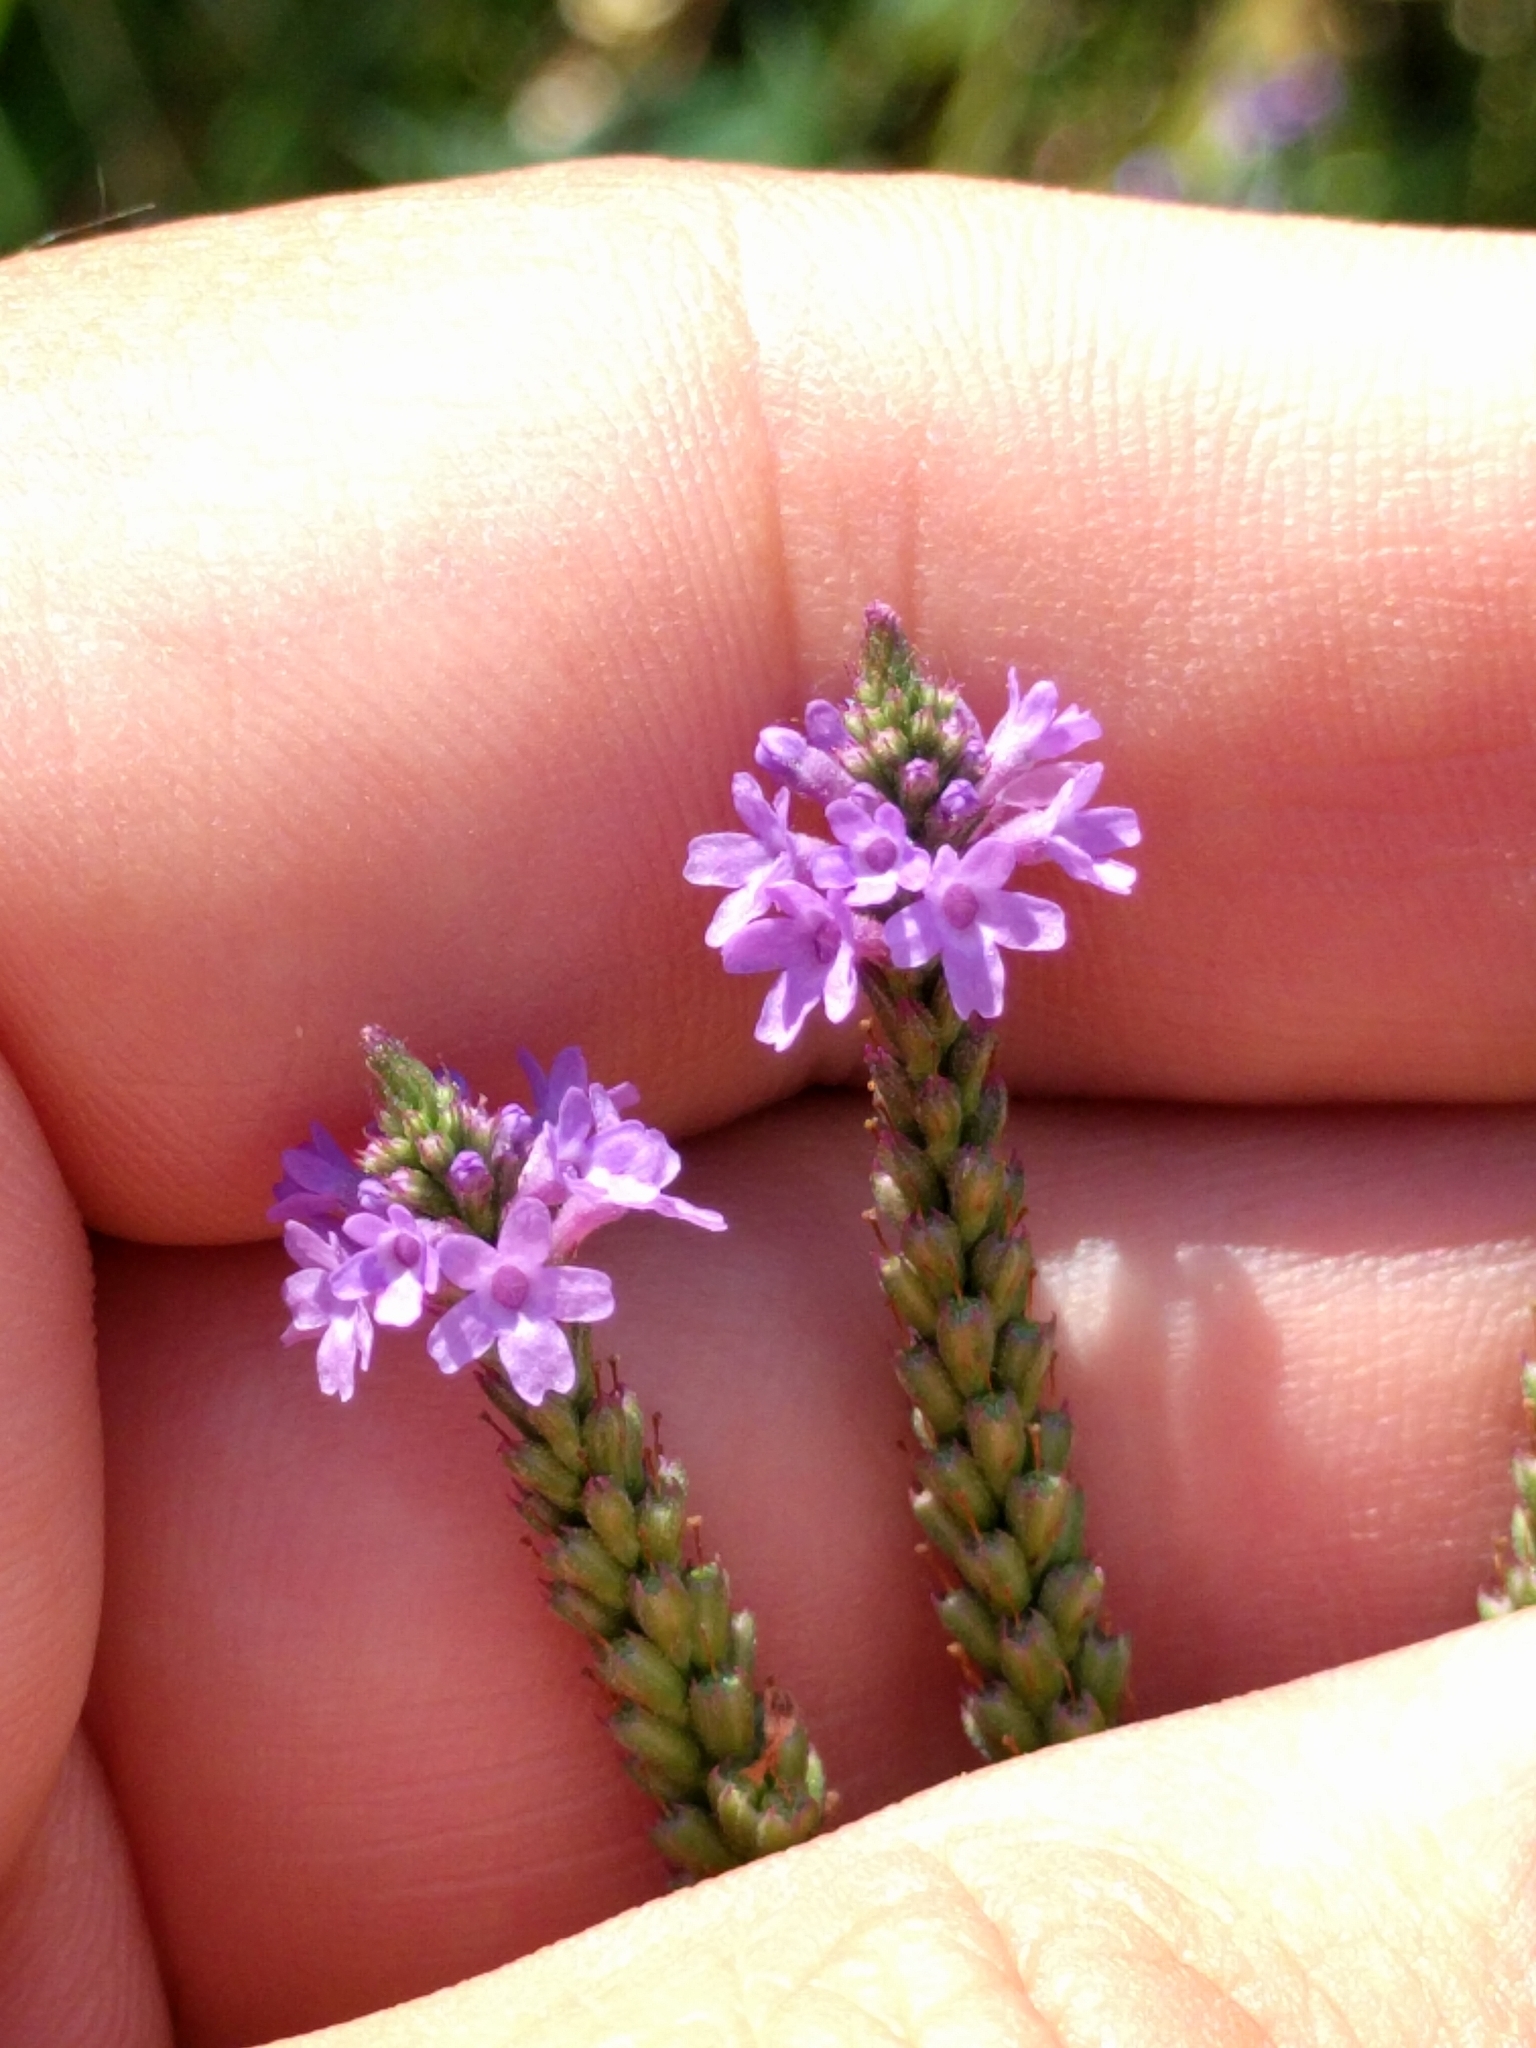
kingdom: Plantae
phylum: Tracheophyta
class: Magnoliopsida
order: Lamiales
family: Verbenaceae
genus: Verbena
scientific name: Verbena hastata
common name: American blue vervain
